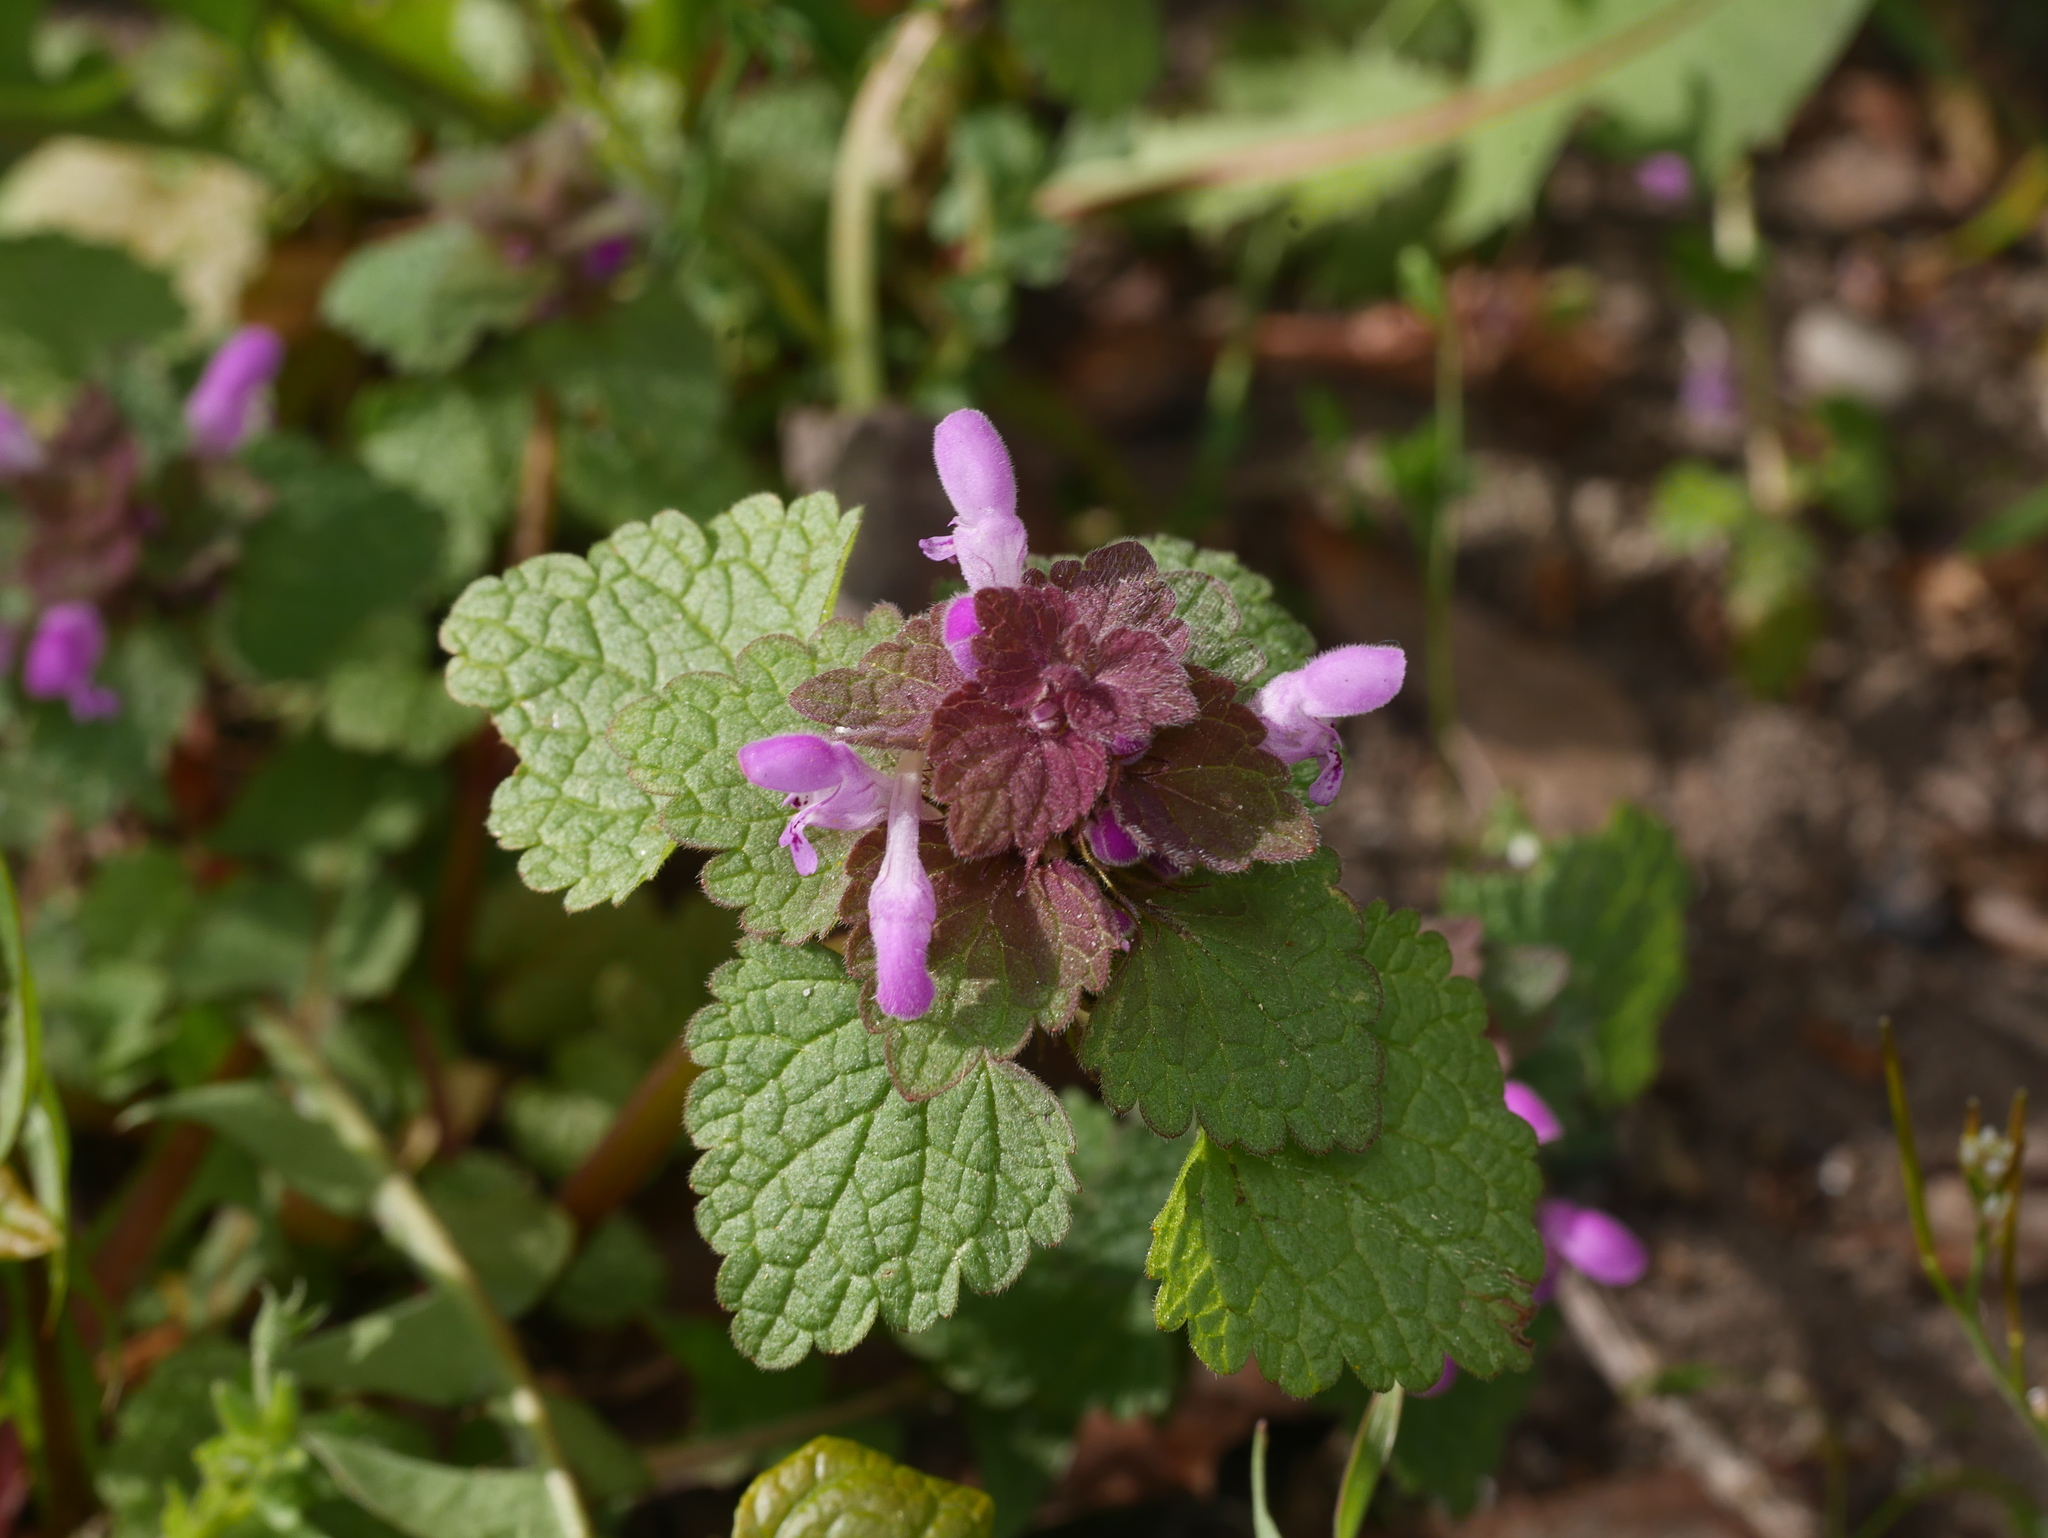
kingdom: Plantae
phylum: Tracheophyta
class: Magnoliopsida
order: Lamiales
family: Lamiaceae
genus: Lamium
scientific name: Lamium purpureum
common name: Red dead-nettle
